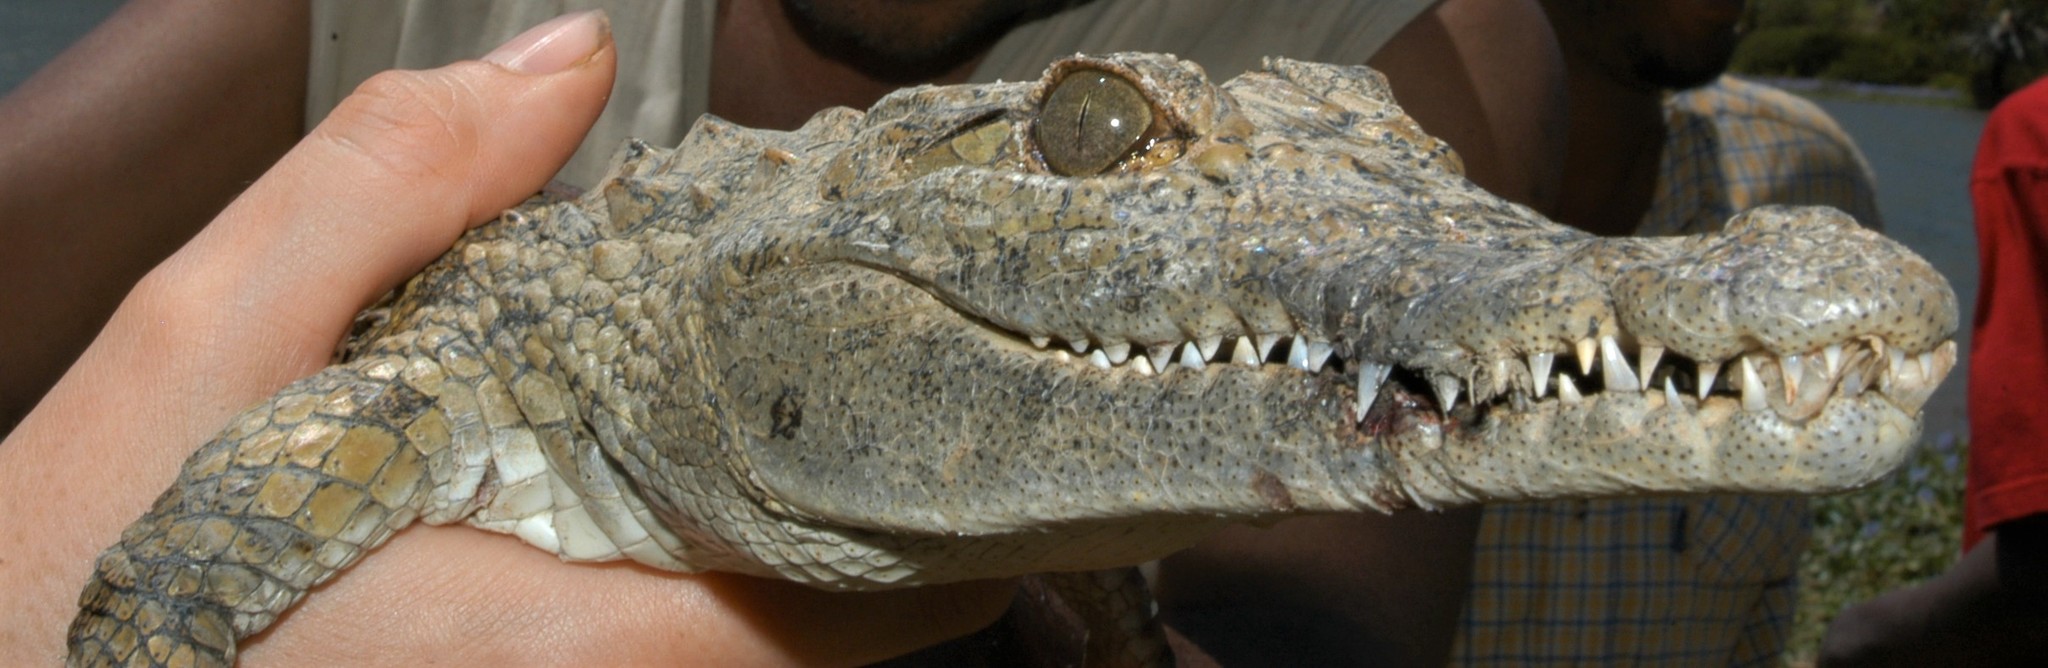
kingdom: Animalia
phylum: Chordata
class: Crocodylia
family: Crocodylidae
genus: Crocodylus
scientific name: Crocodylus niloticus
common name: Nile crocodile
